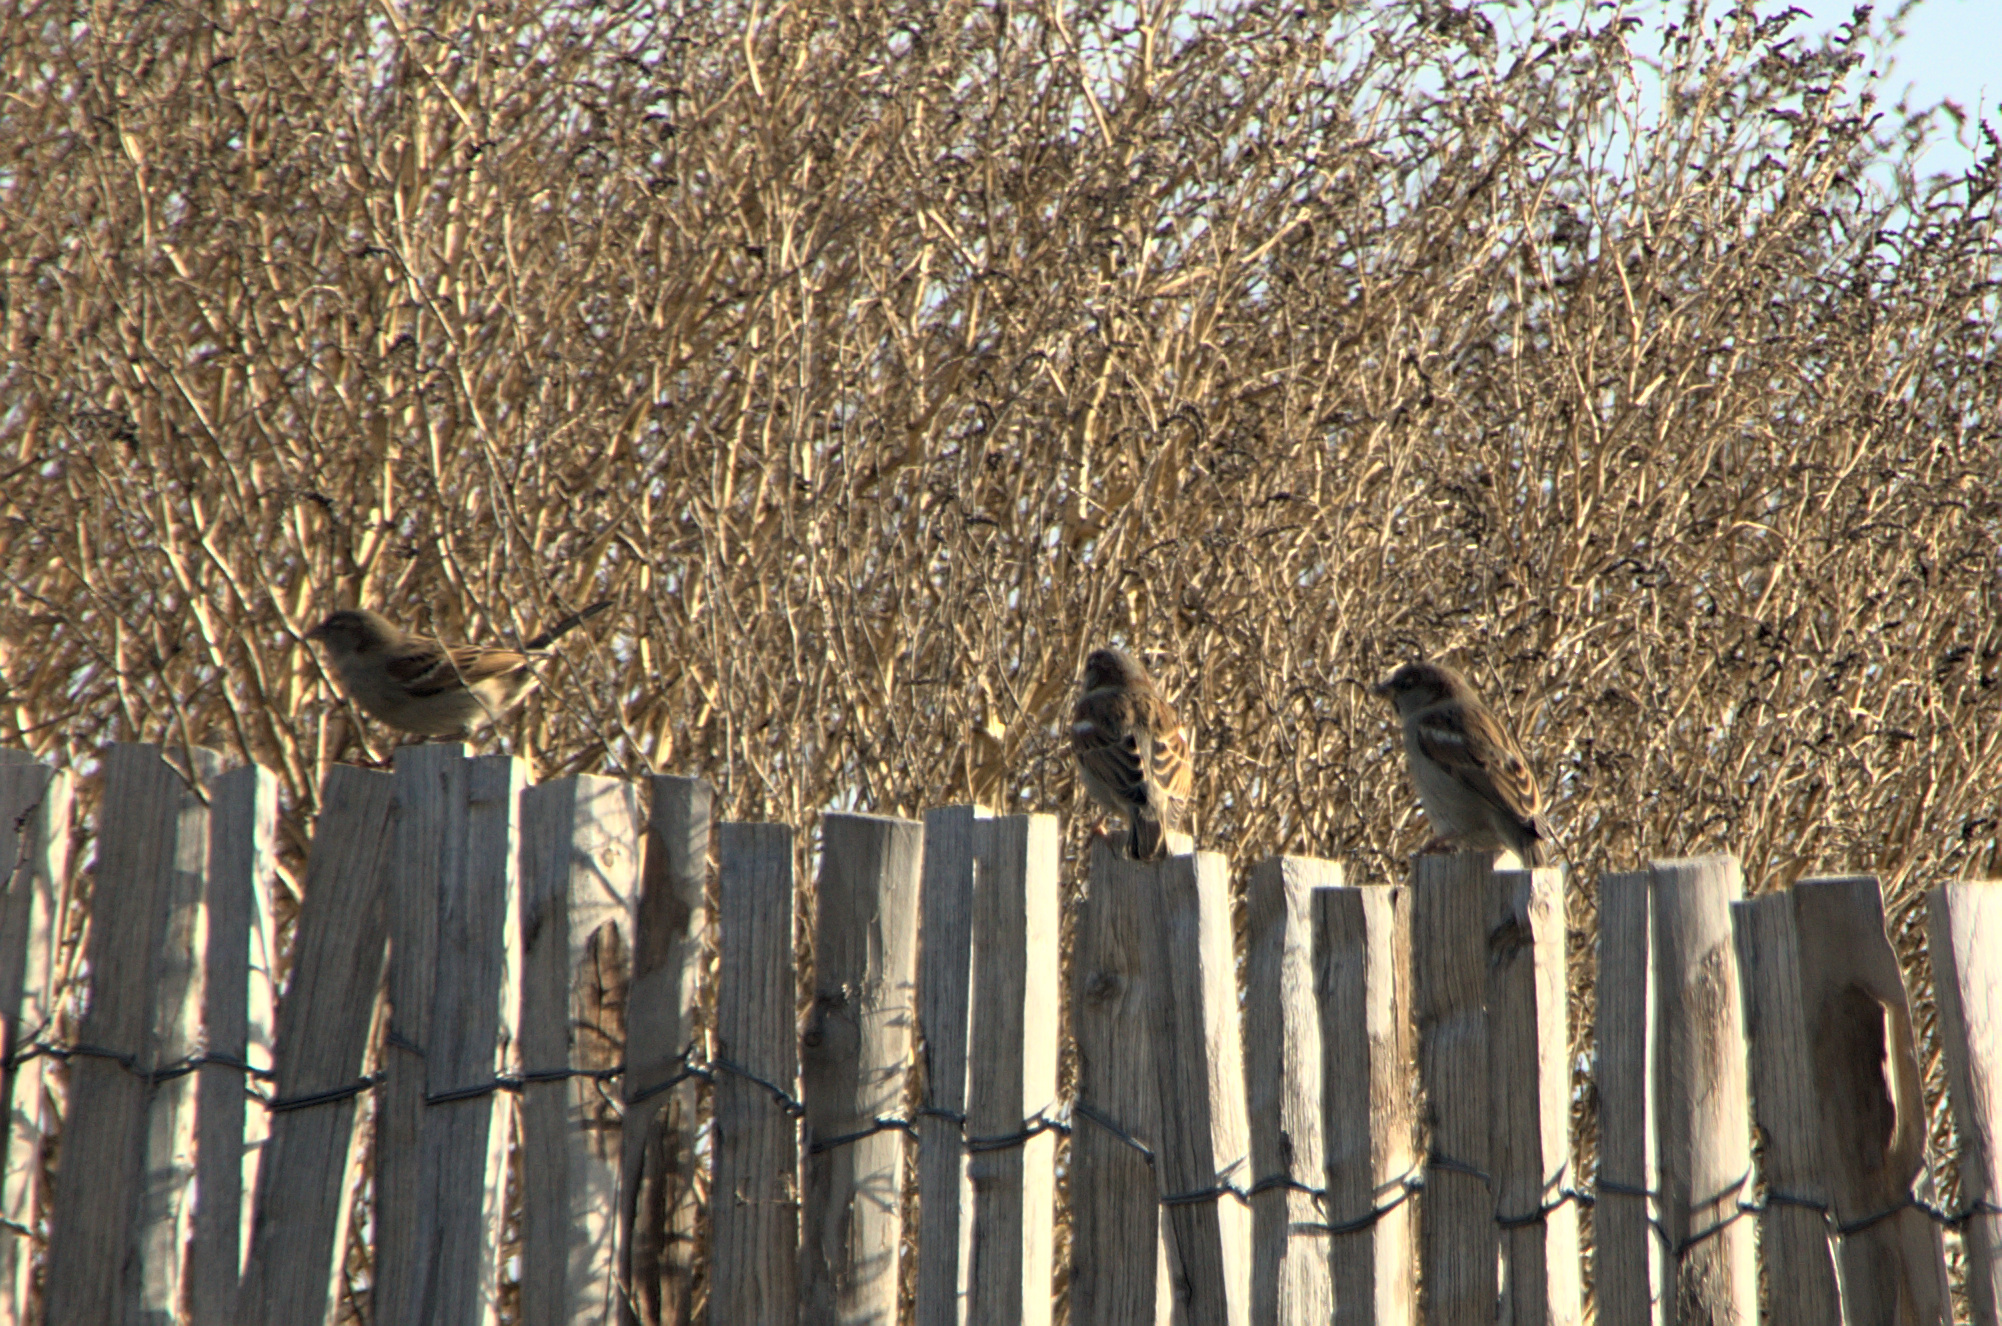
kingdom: Animalia
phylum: Chordata
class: Aves
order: Passeriformes
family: Passeridae
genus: Passer
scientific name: Passer domesticus
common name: House sparrow
